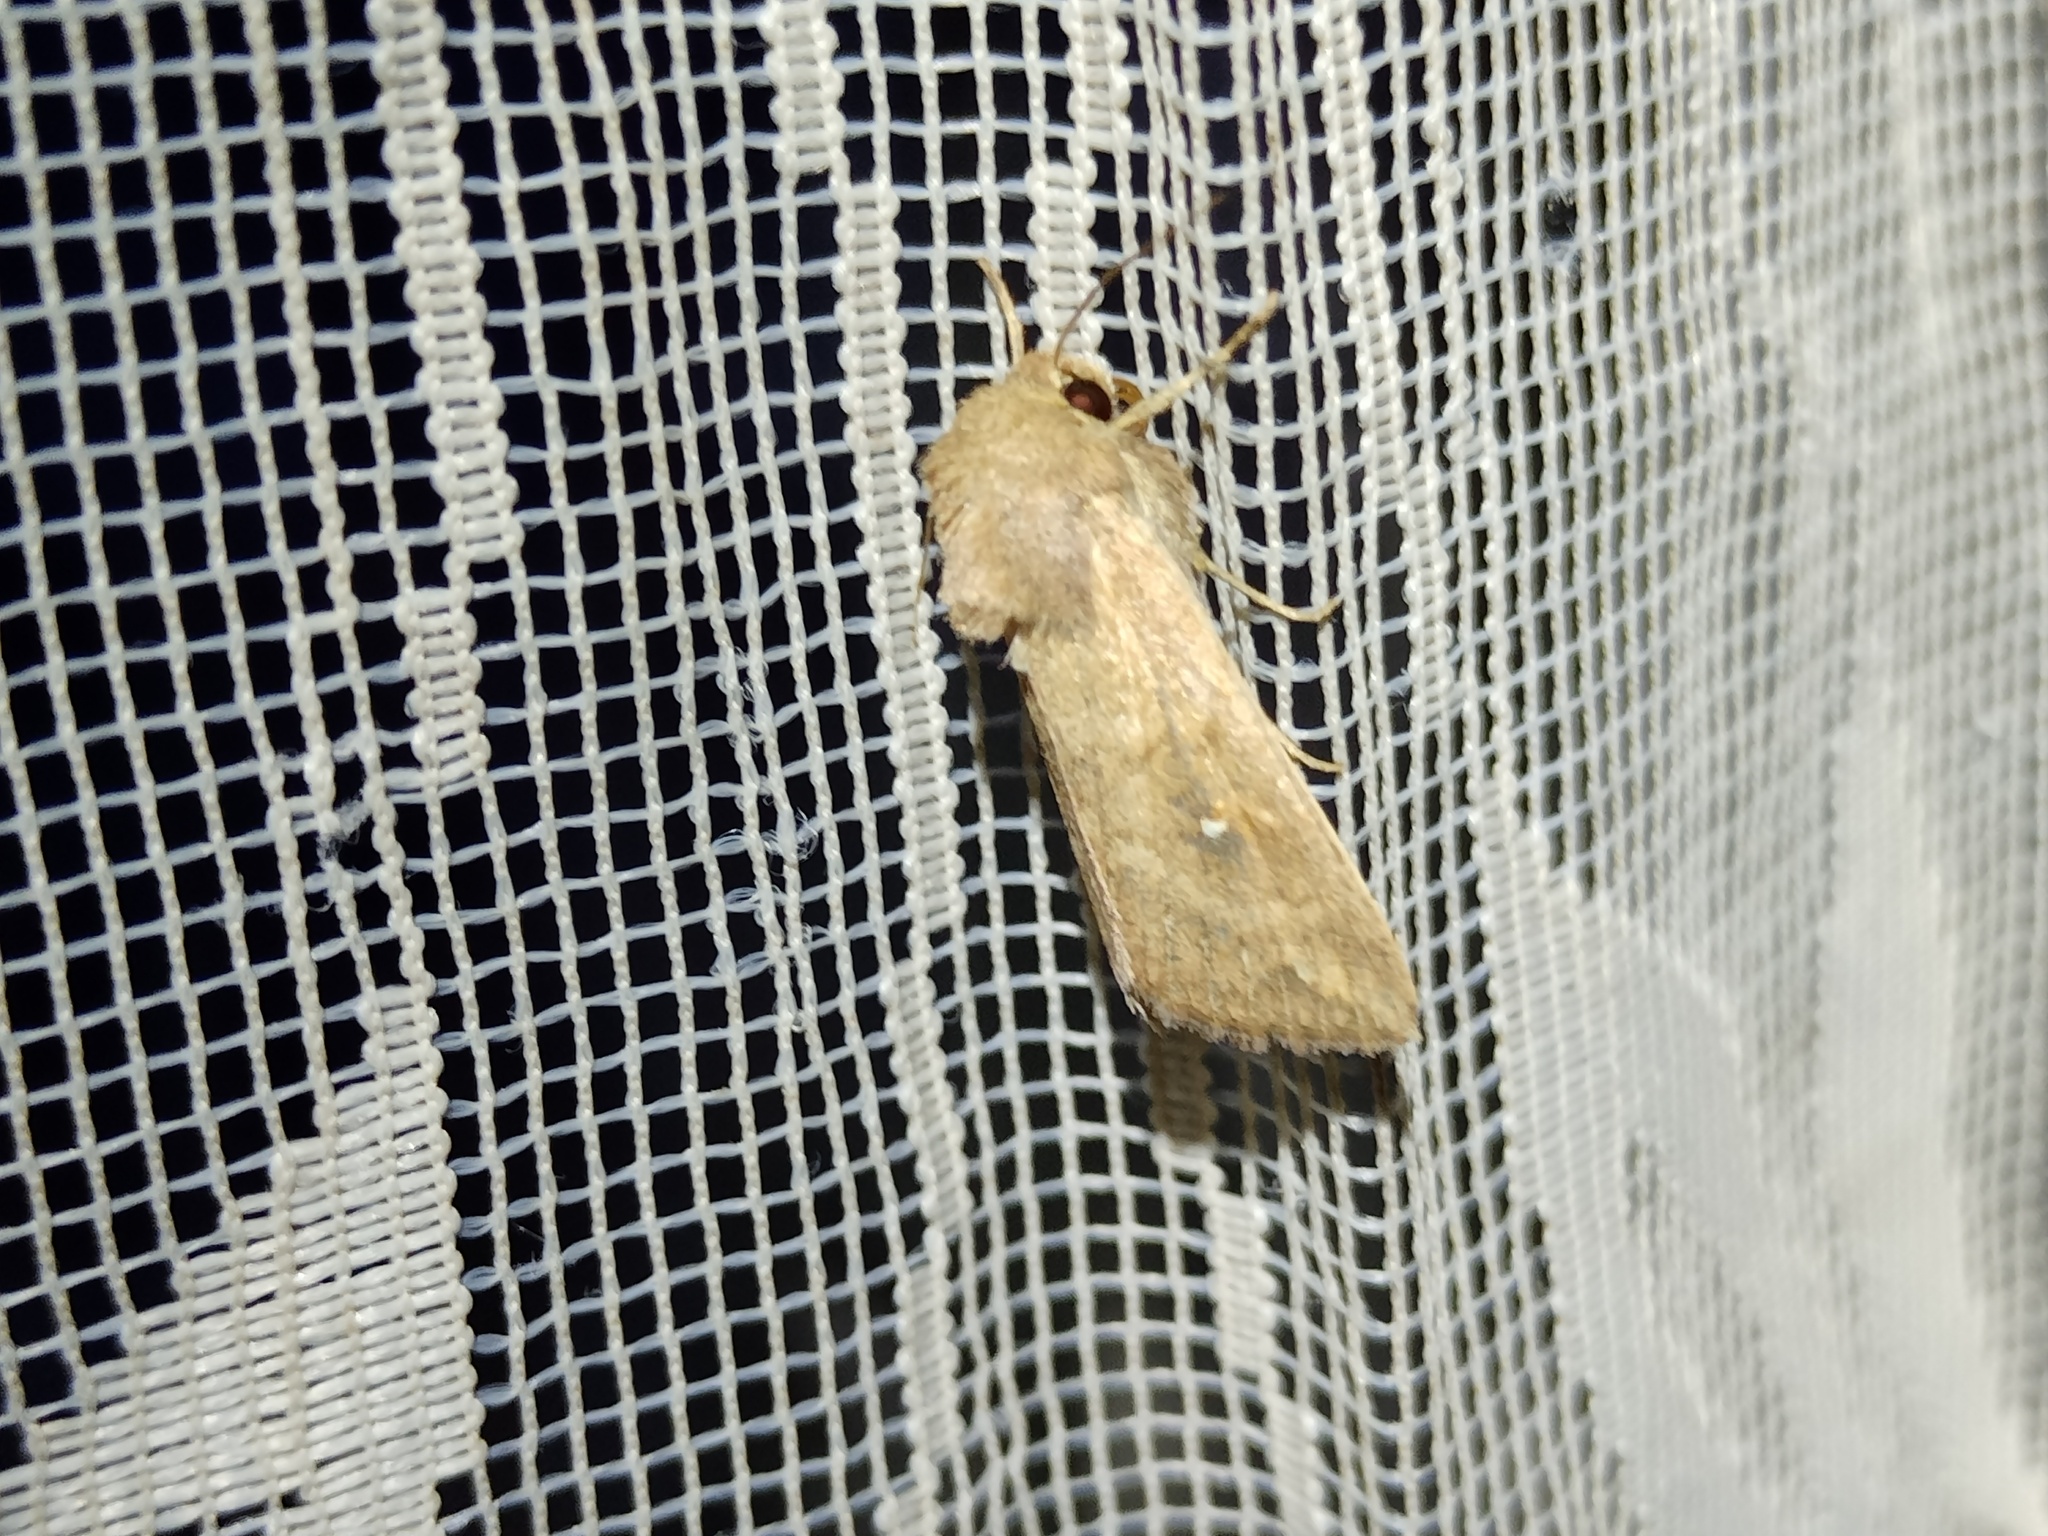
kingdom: Animalia
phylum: Arthropoda
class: Insecta
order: Lepidoptera
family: Noctuidae
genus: Mythimna
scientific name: Mythimna albipuncta
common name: White-point
